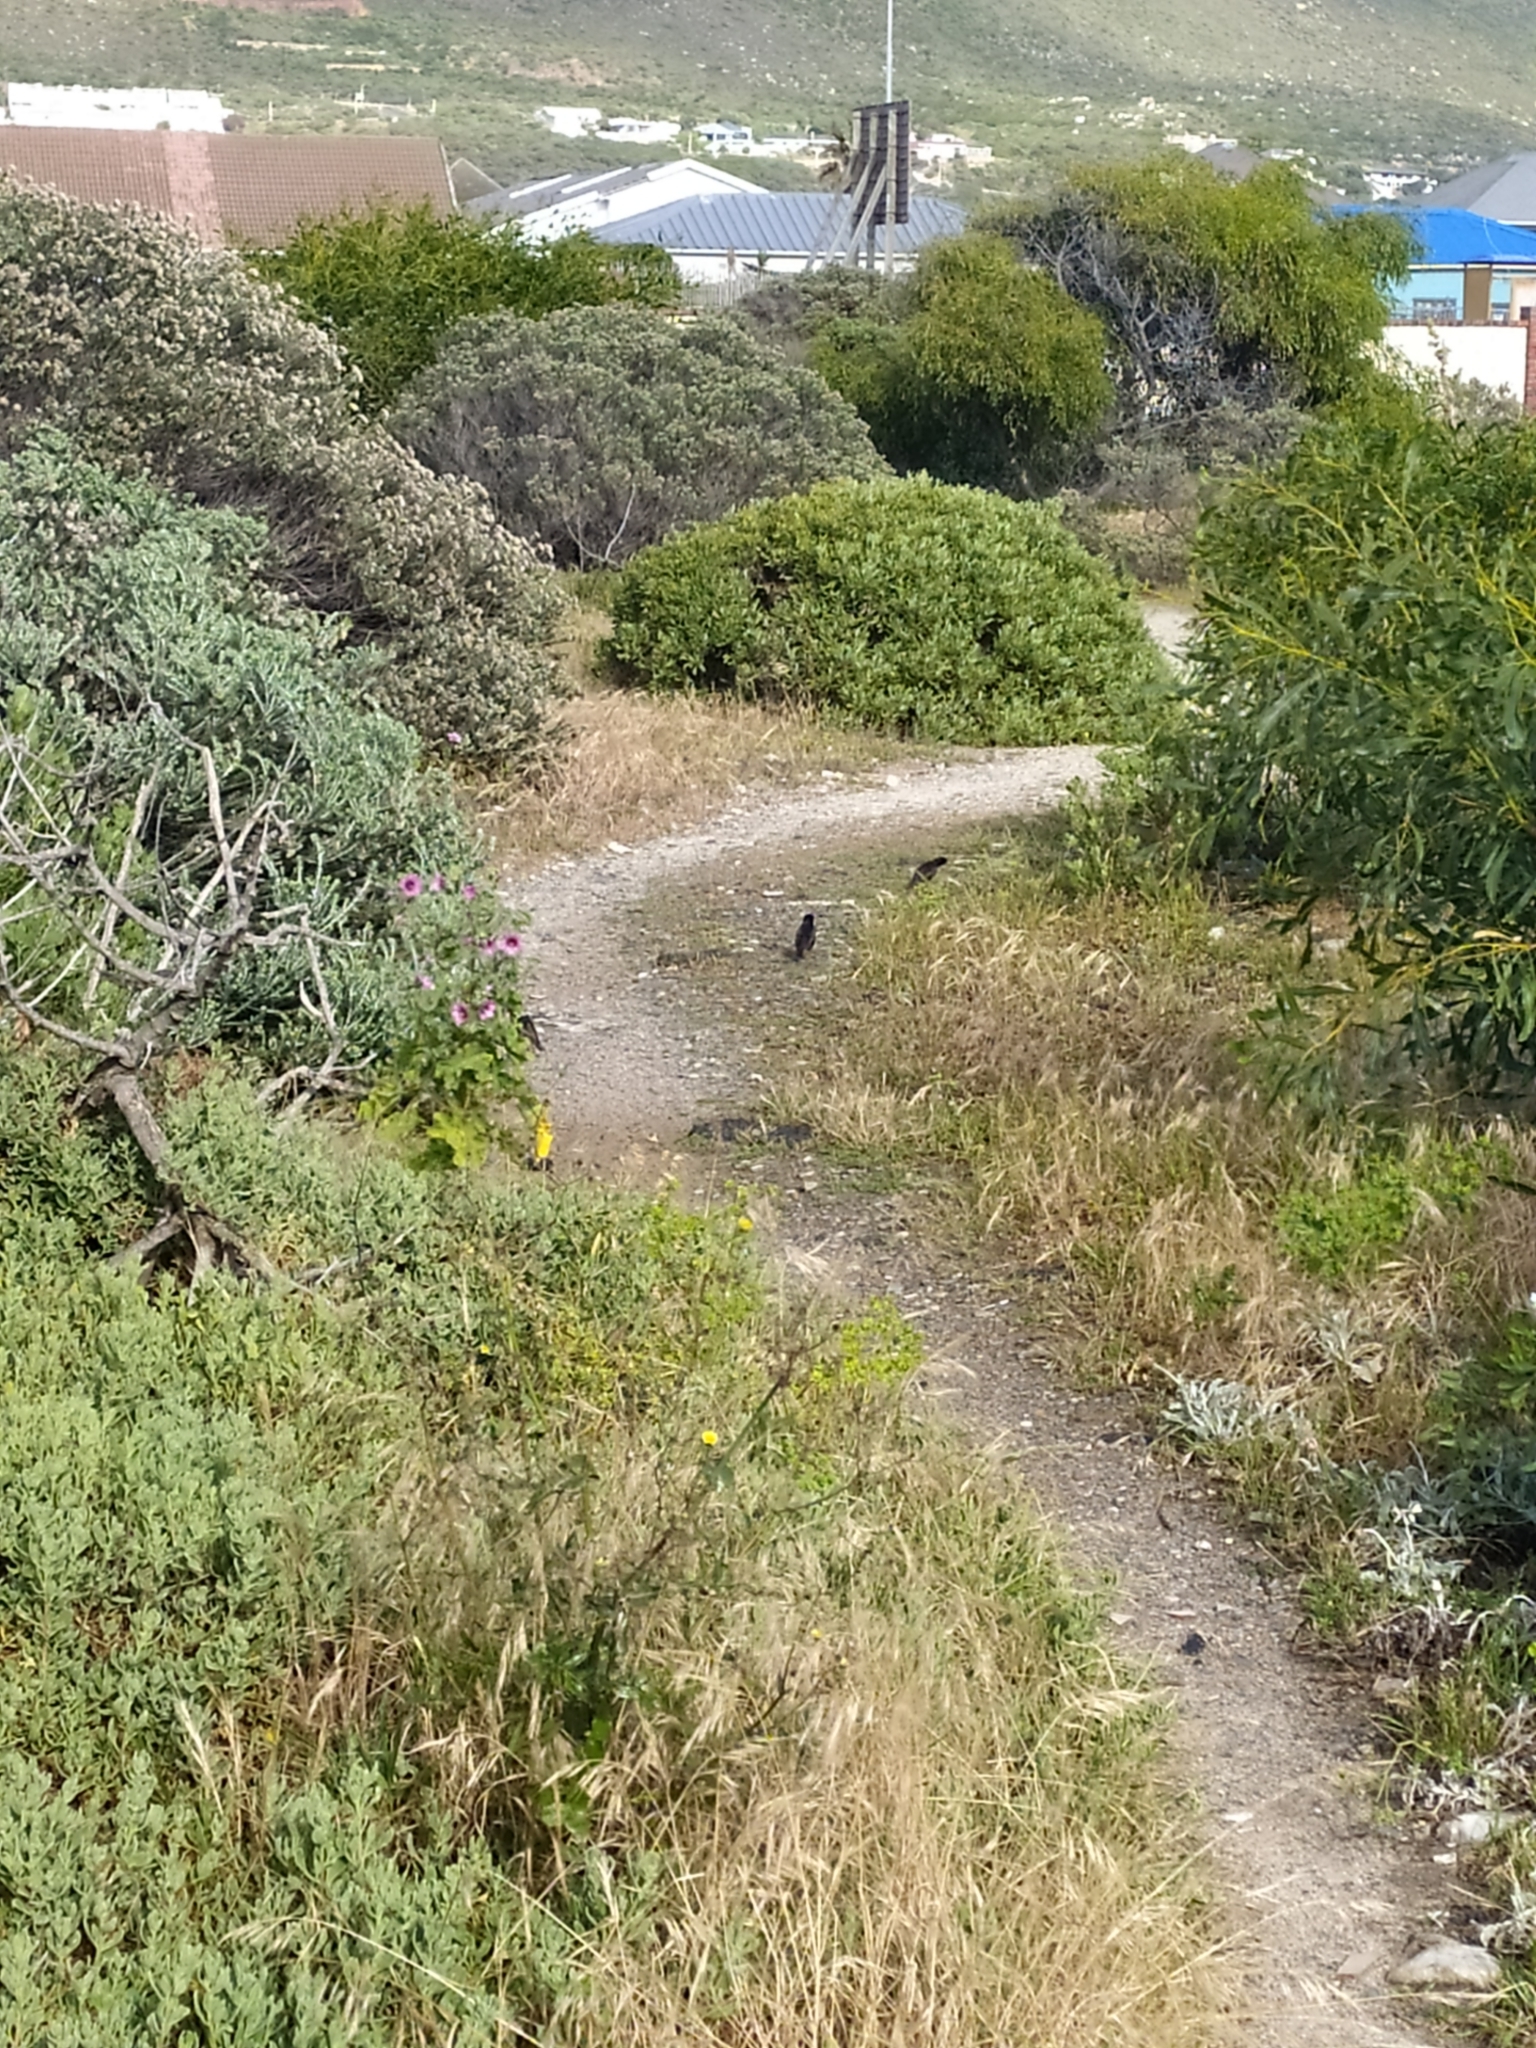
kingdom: Animalia
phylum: Chordata
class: Aves
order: Passeriformes
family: Sturnidae
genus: Sturnus
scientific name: Sturnus vulgaris
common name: Common starling
